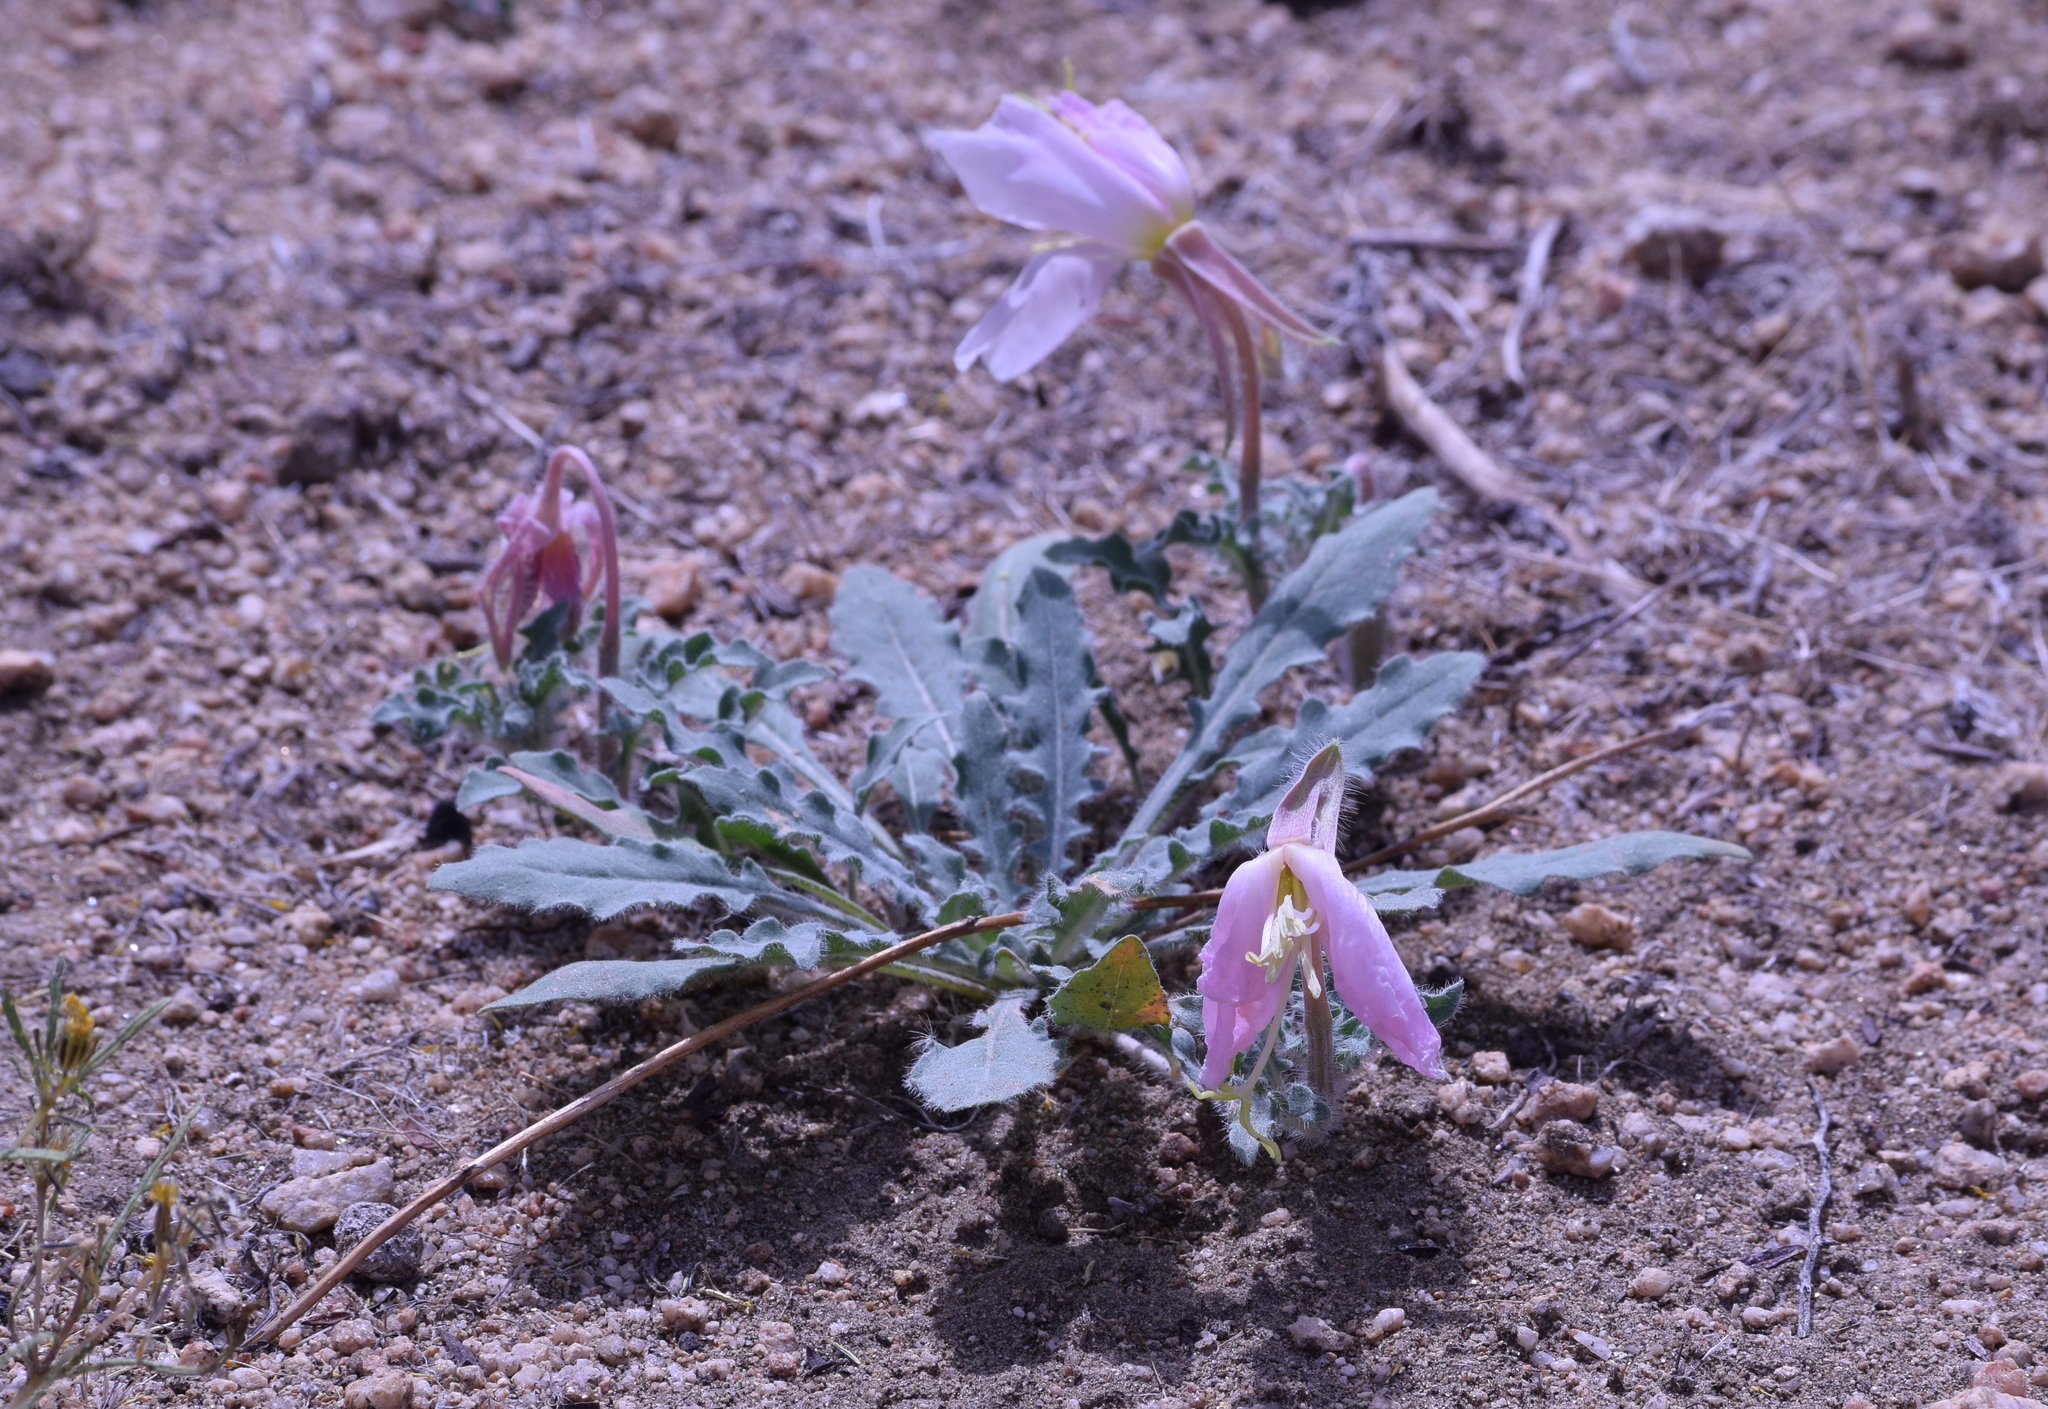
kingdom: Plantae
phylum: Tracheophyta
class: Magnoliopsida
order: Myrtales
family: Onagraceae
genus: Oenothera
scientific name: Oenothera californica
